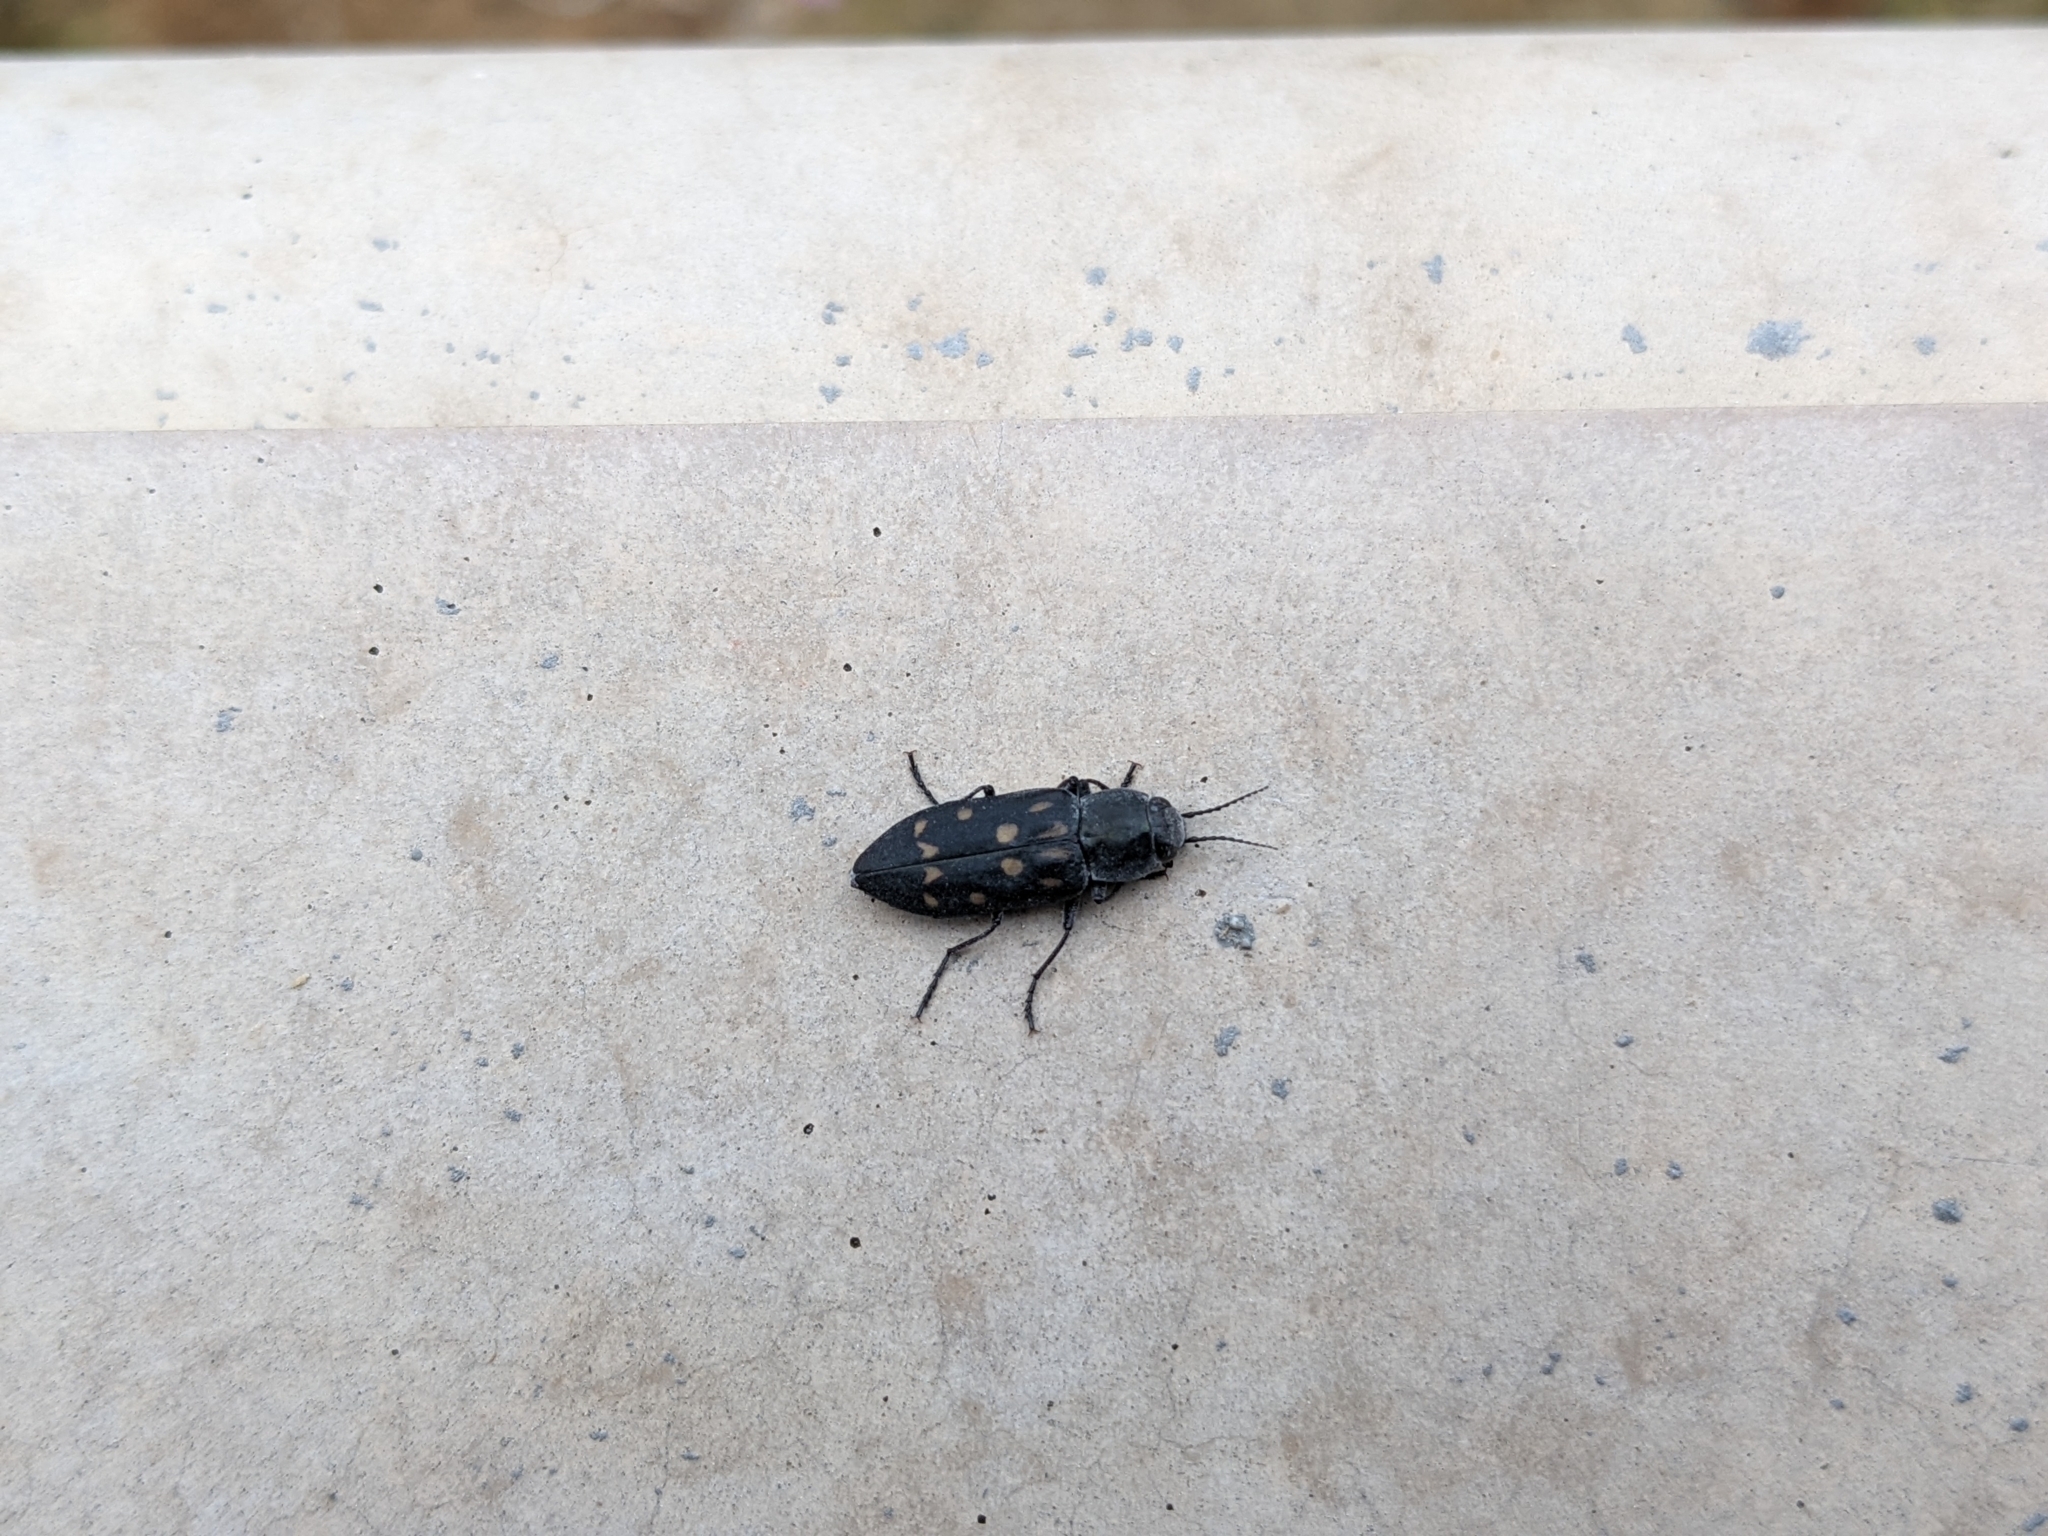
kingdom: Animalia
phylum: Arthropoda
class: Insecta
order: Coleoptera
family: Buprestidae
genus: Melanophila
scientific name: Melanophila consputa
